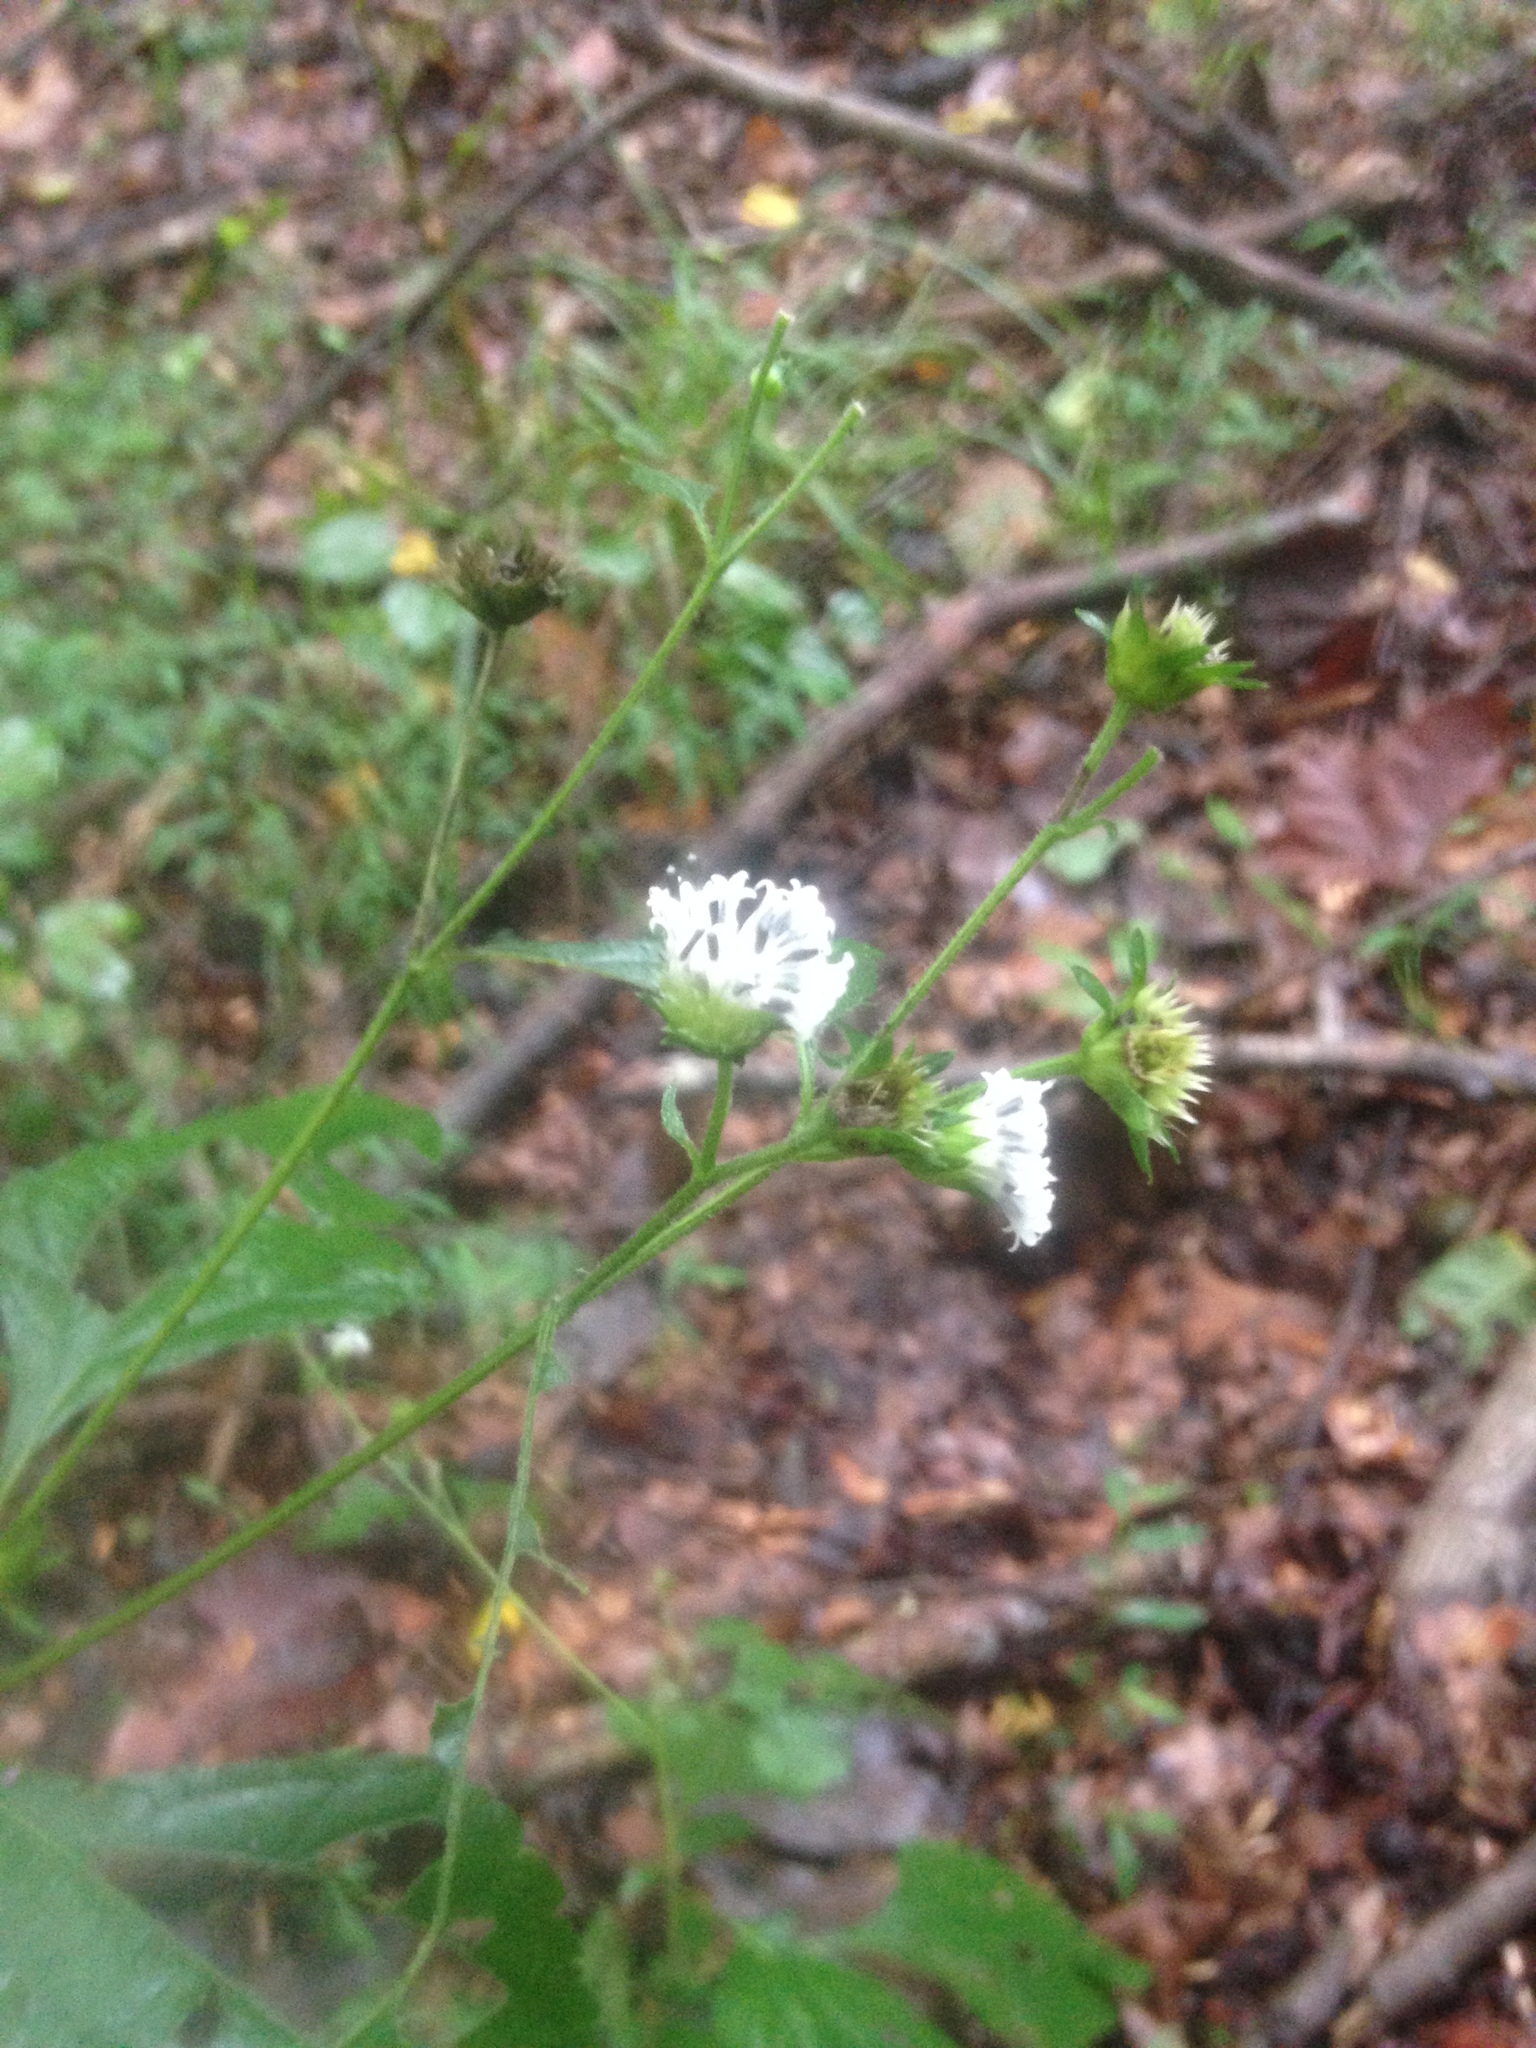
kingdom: Plantae
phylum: Tracheophyta
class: Magnoliopsida
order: Asterales
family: Asteraceae
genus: Melanthera
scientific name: Melanthera nivea
